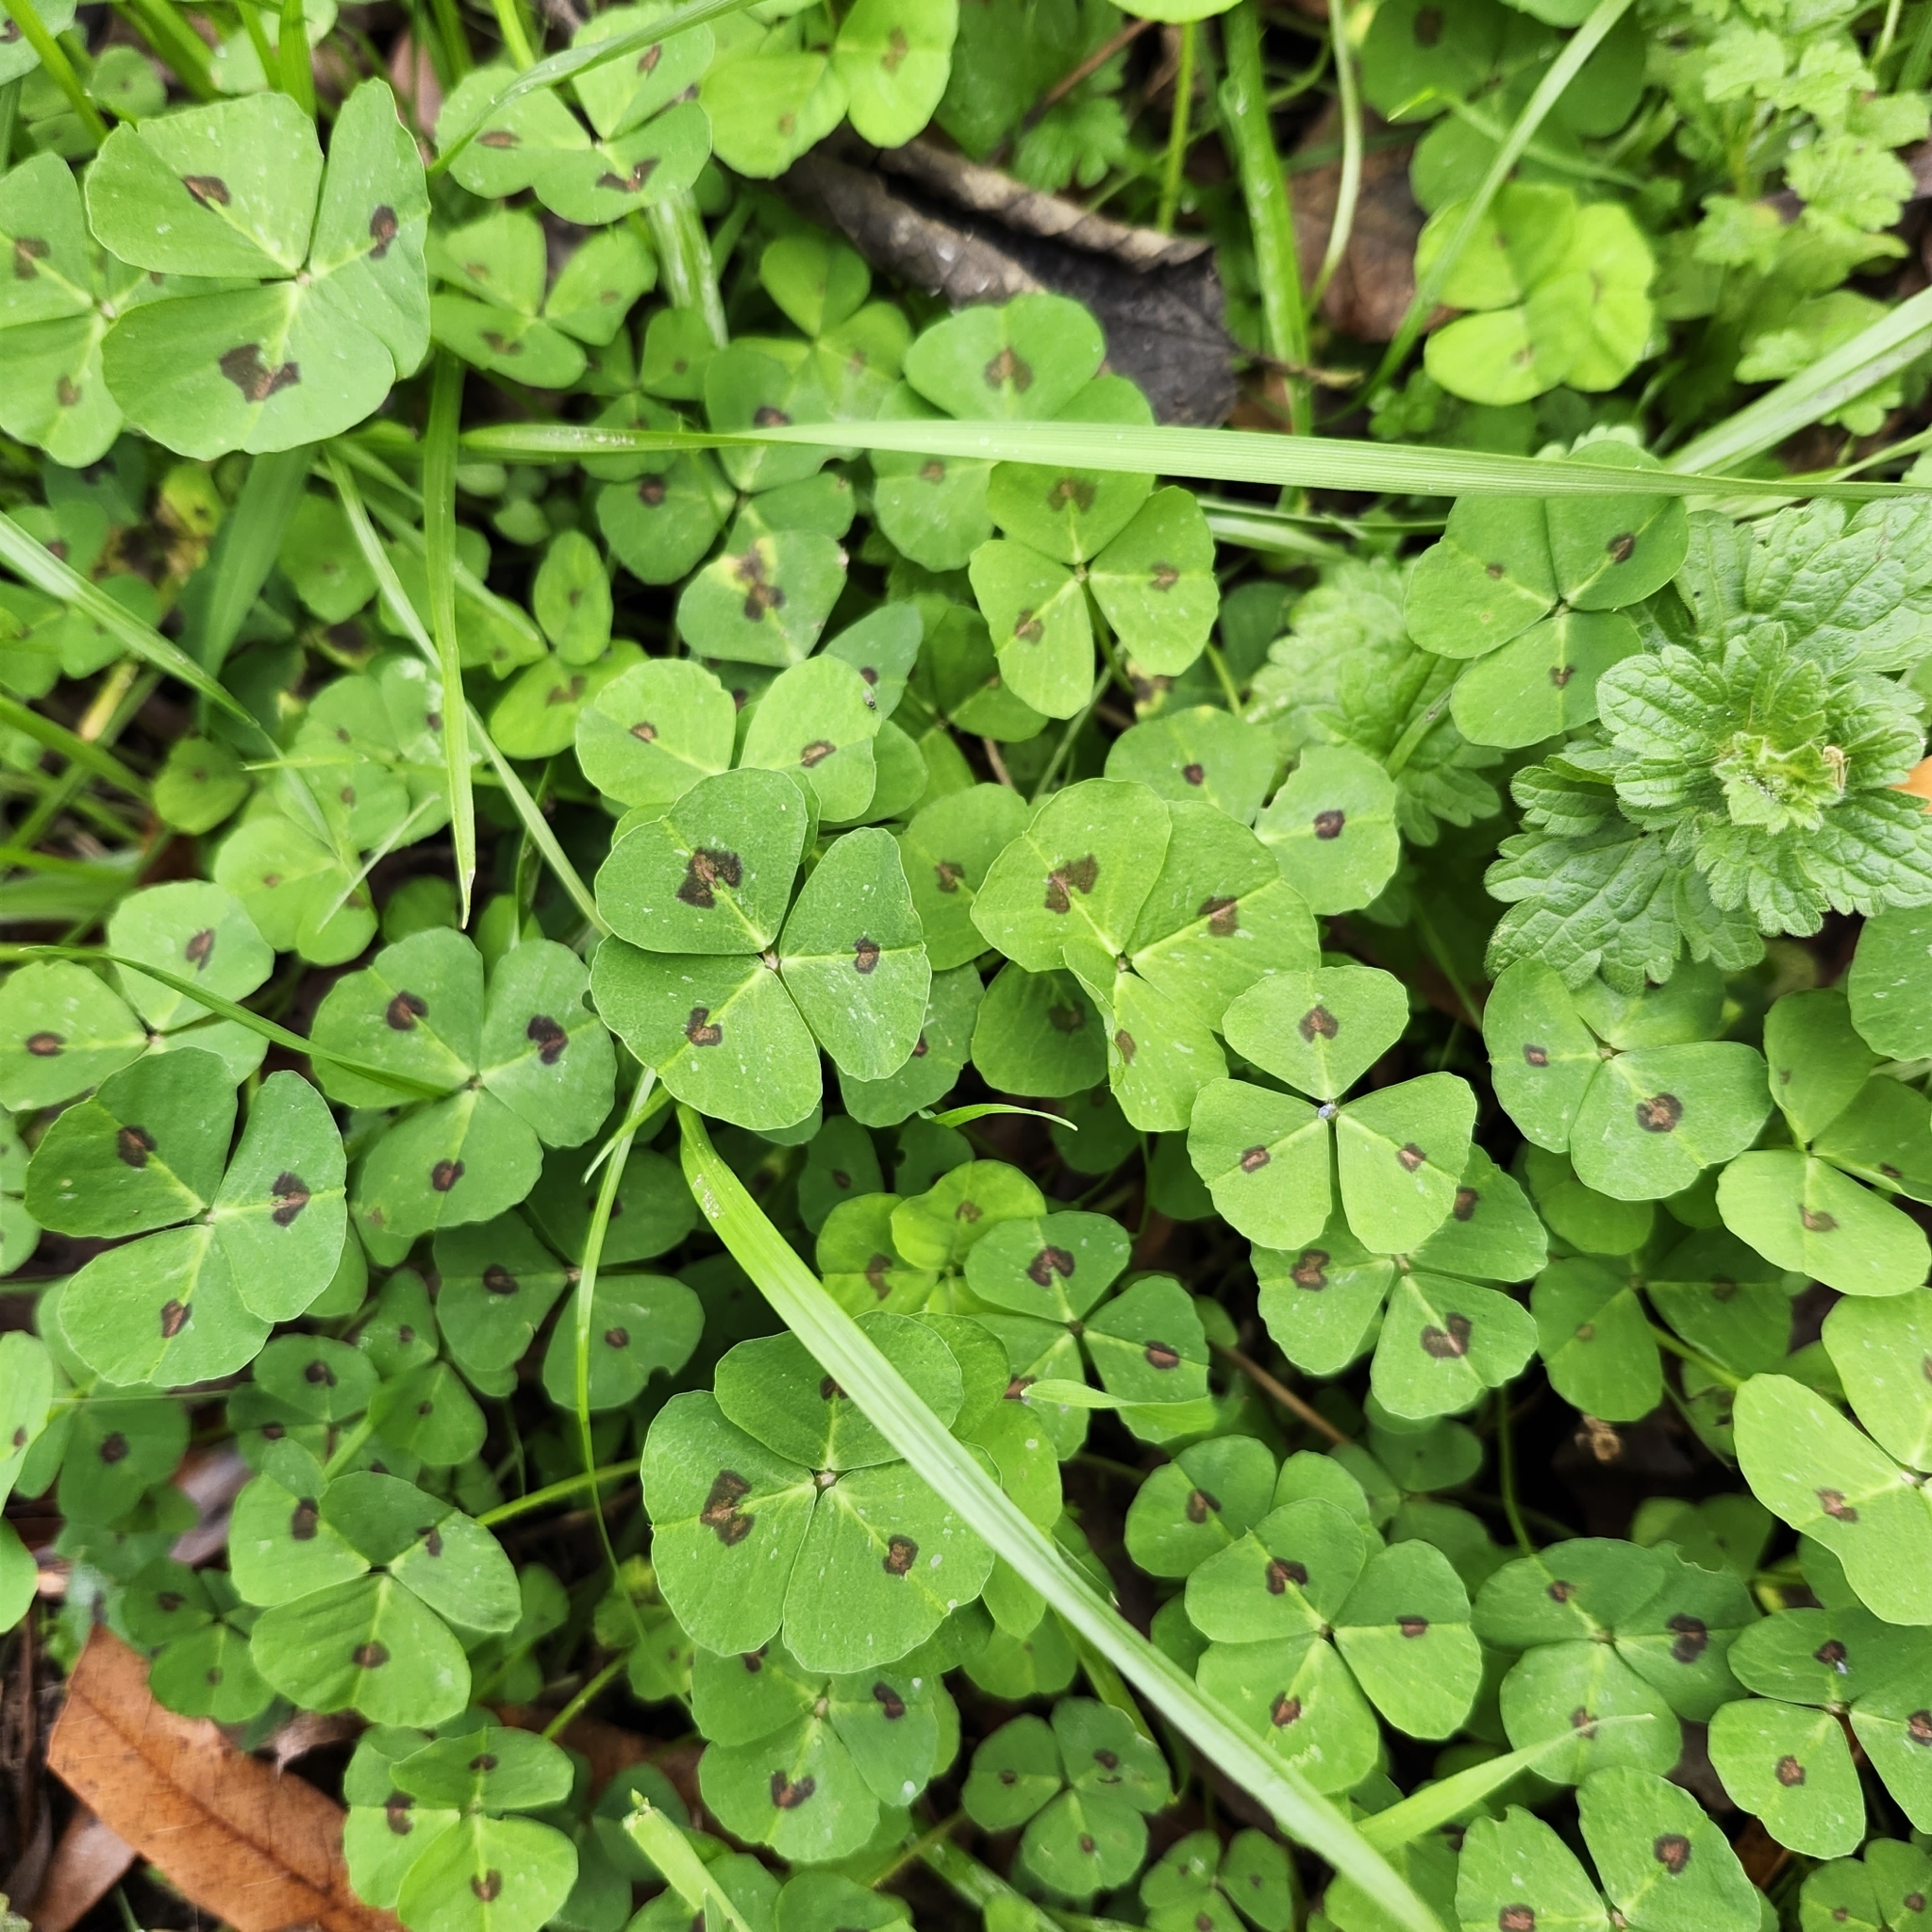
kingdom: Plantae
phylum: Tracheophyta
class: Magnoliopsida
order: Fabales
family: Fabaceae
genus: Medicago
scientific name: Medicago arabica
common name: Spotted medick
